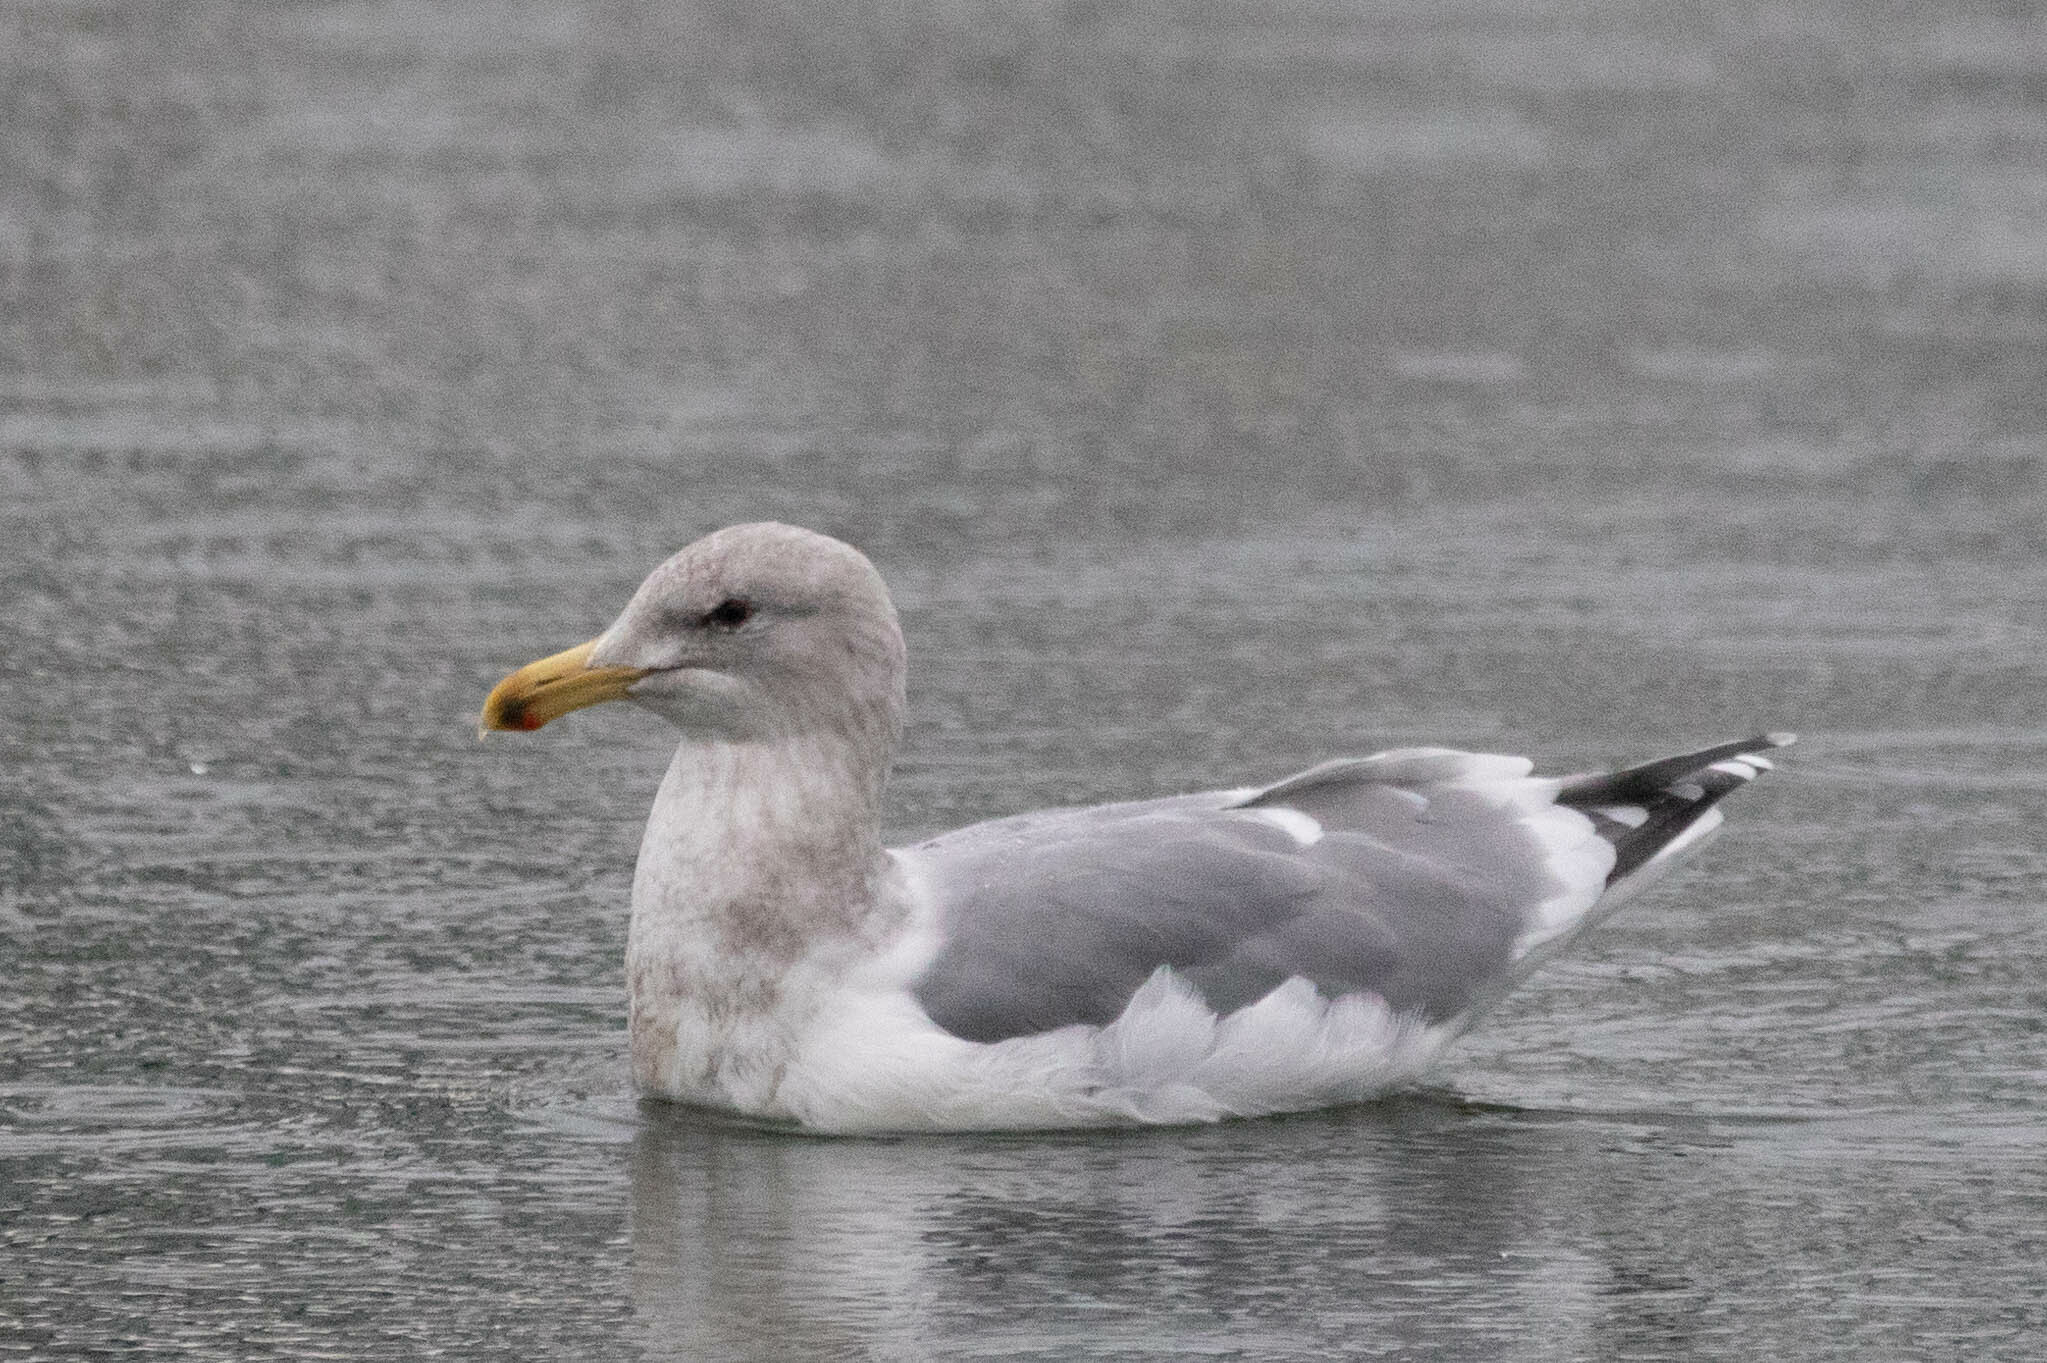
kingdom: Animalia
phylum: Chordata
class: Aves
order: Charadriiformes
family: Laridae
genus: Larus
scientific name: Larus
